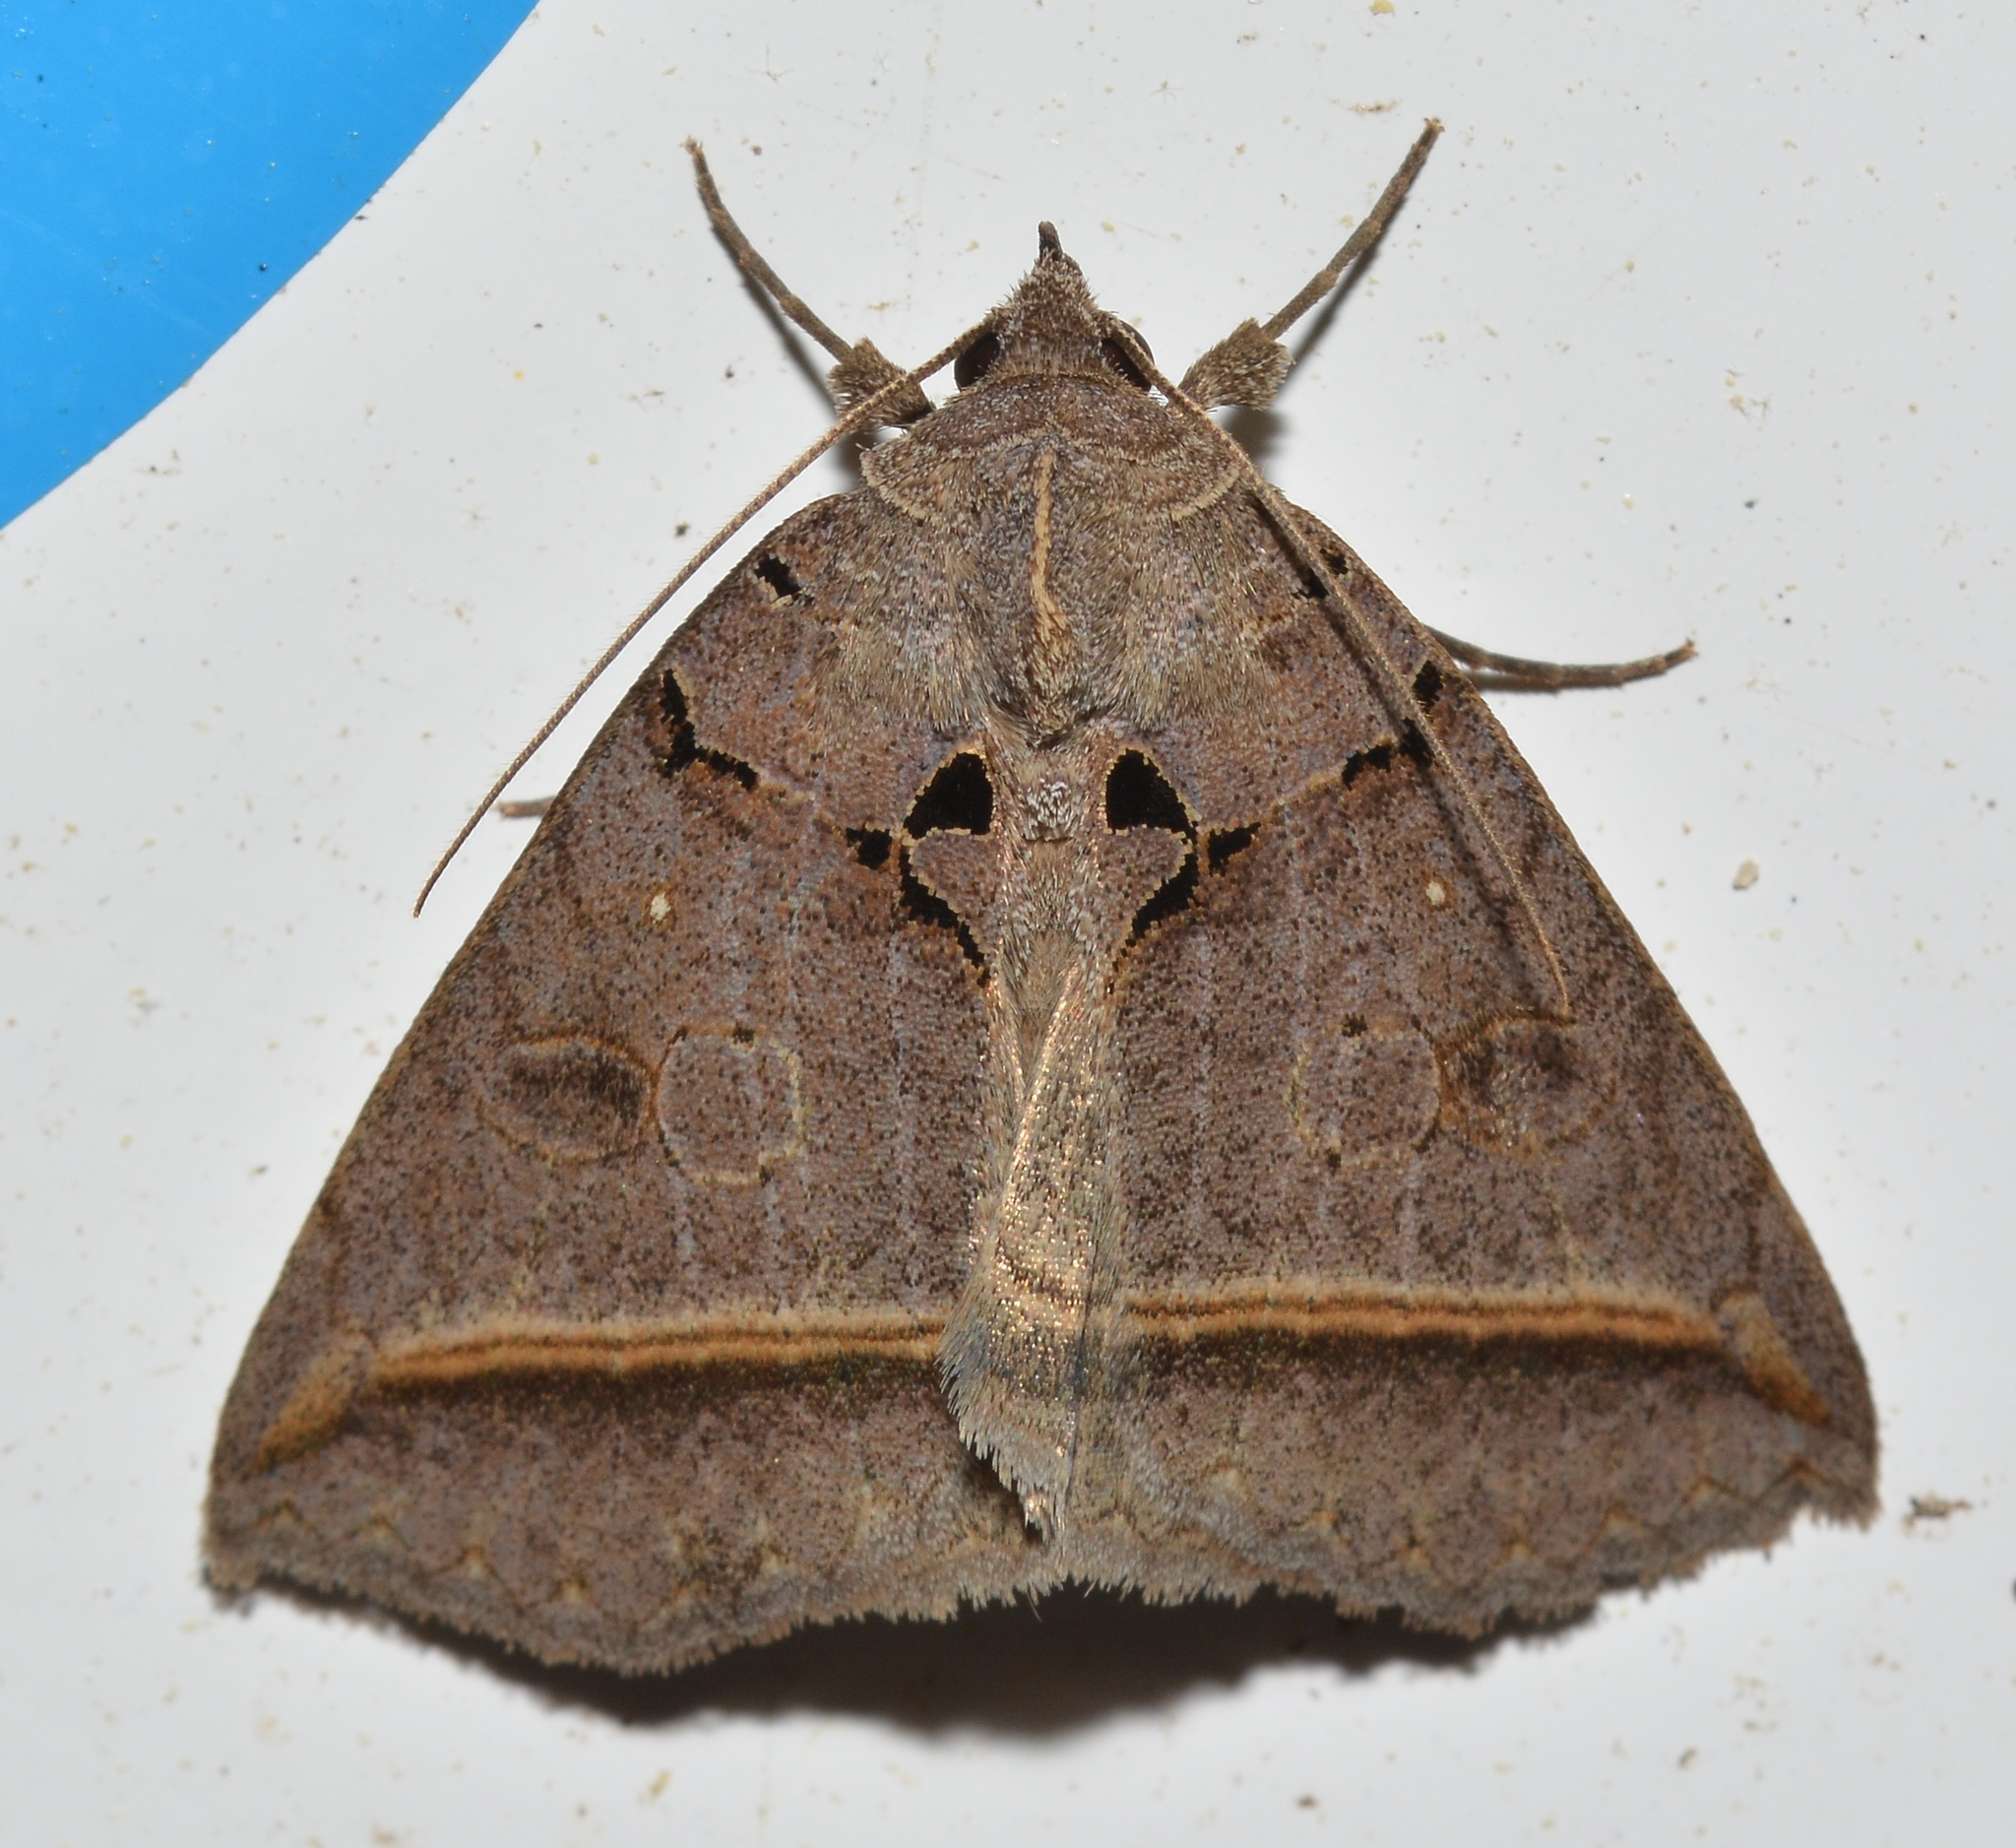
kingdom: Animalia
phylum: Arthropoda
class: Insecta
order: Lepidoptera
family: Erebidae
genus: Celiptera
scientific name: Celiptera frustulum
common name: Black bit moth
